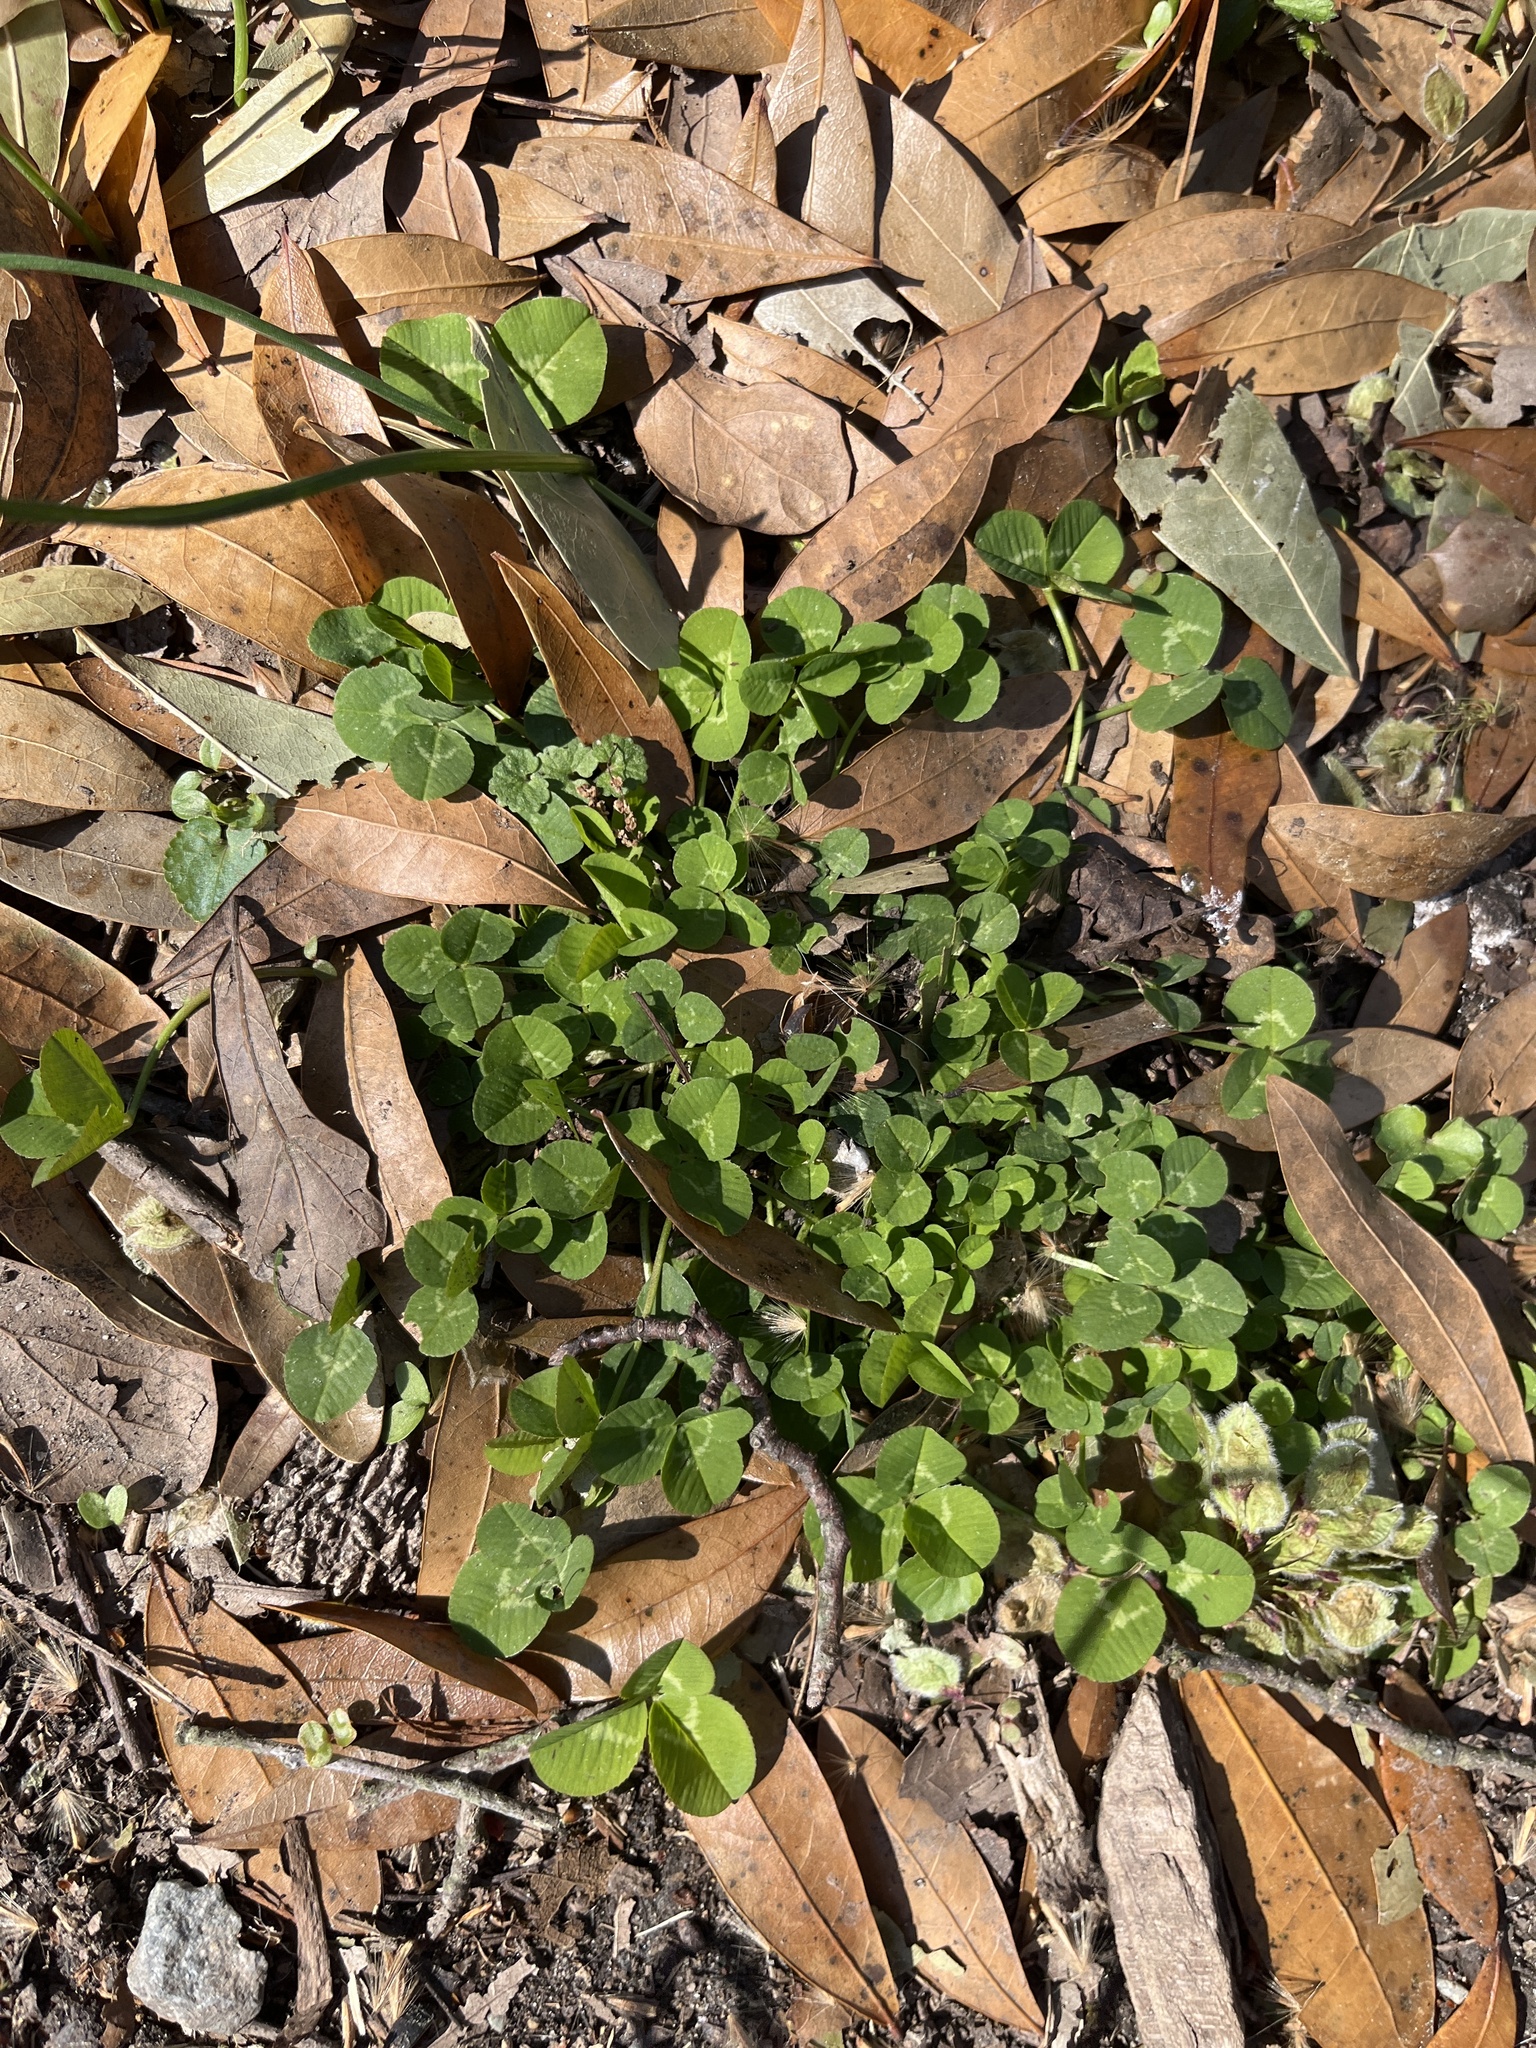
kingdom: Plantae
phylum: Tracheophyta
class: Magnoliopsida
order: Fabales
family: Fabaceae
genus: Trifolium
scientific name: Trifolium repens
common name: White clover
